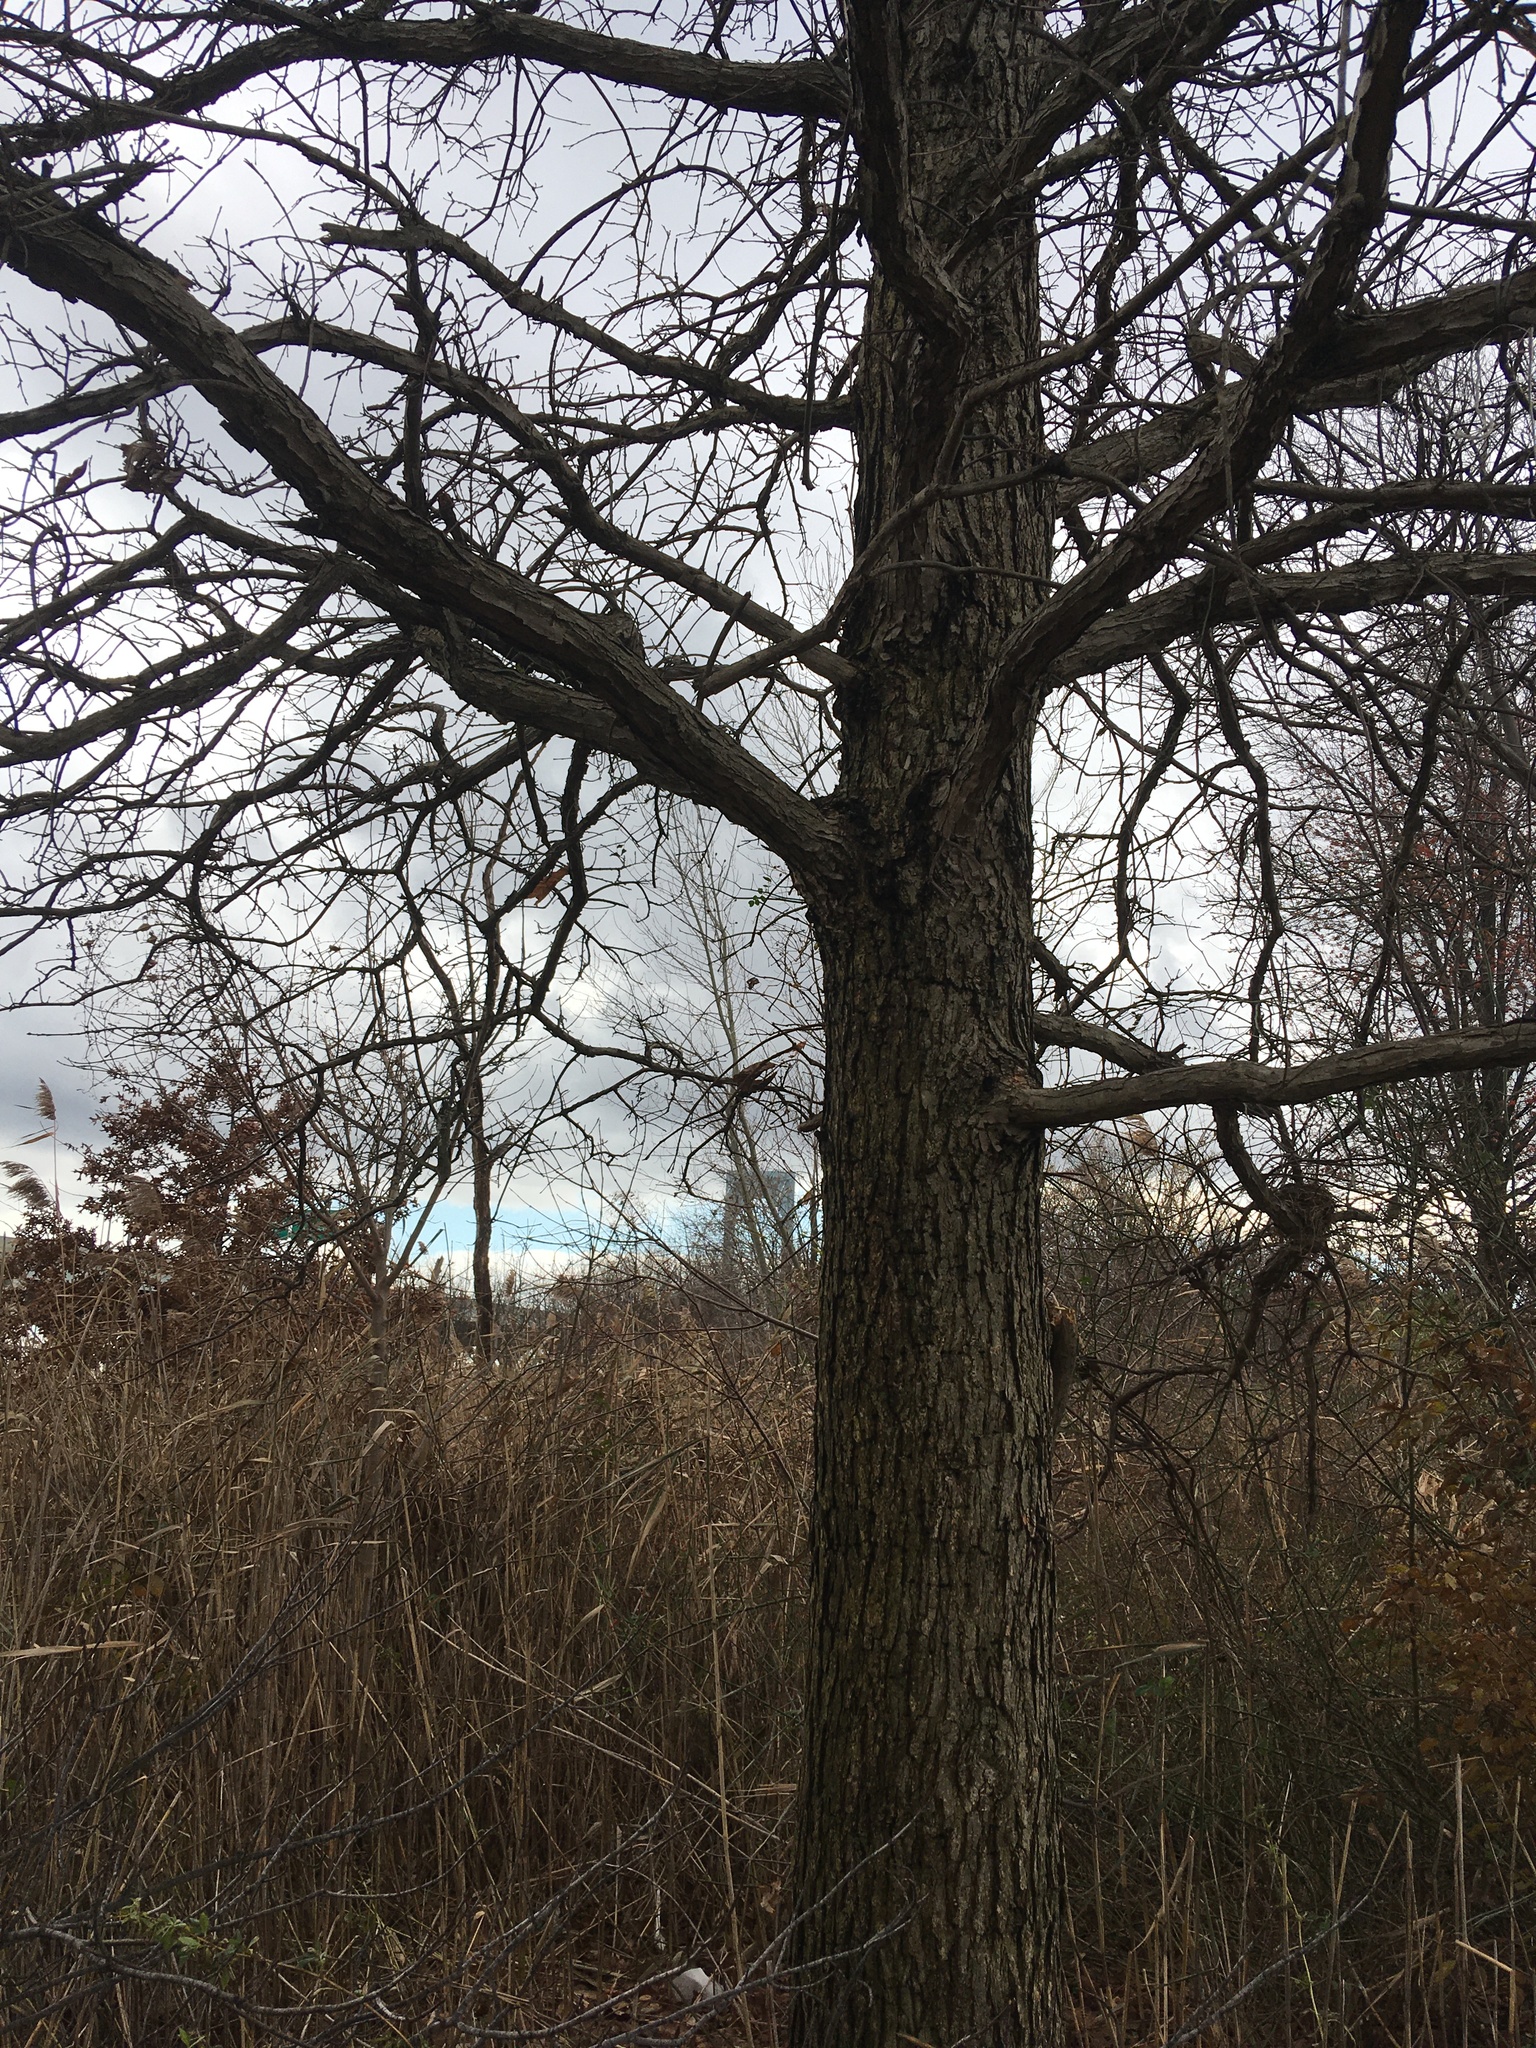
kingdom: Plantae
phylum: Tracheophyta
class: Magnoliopsida
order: Fagales
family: Fagaceae
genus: Quercus
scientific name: Quercus bicolor
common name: Swamp white oak
